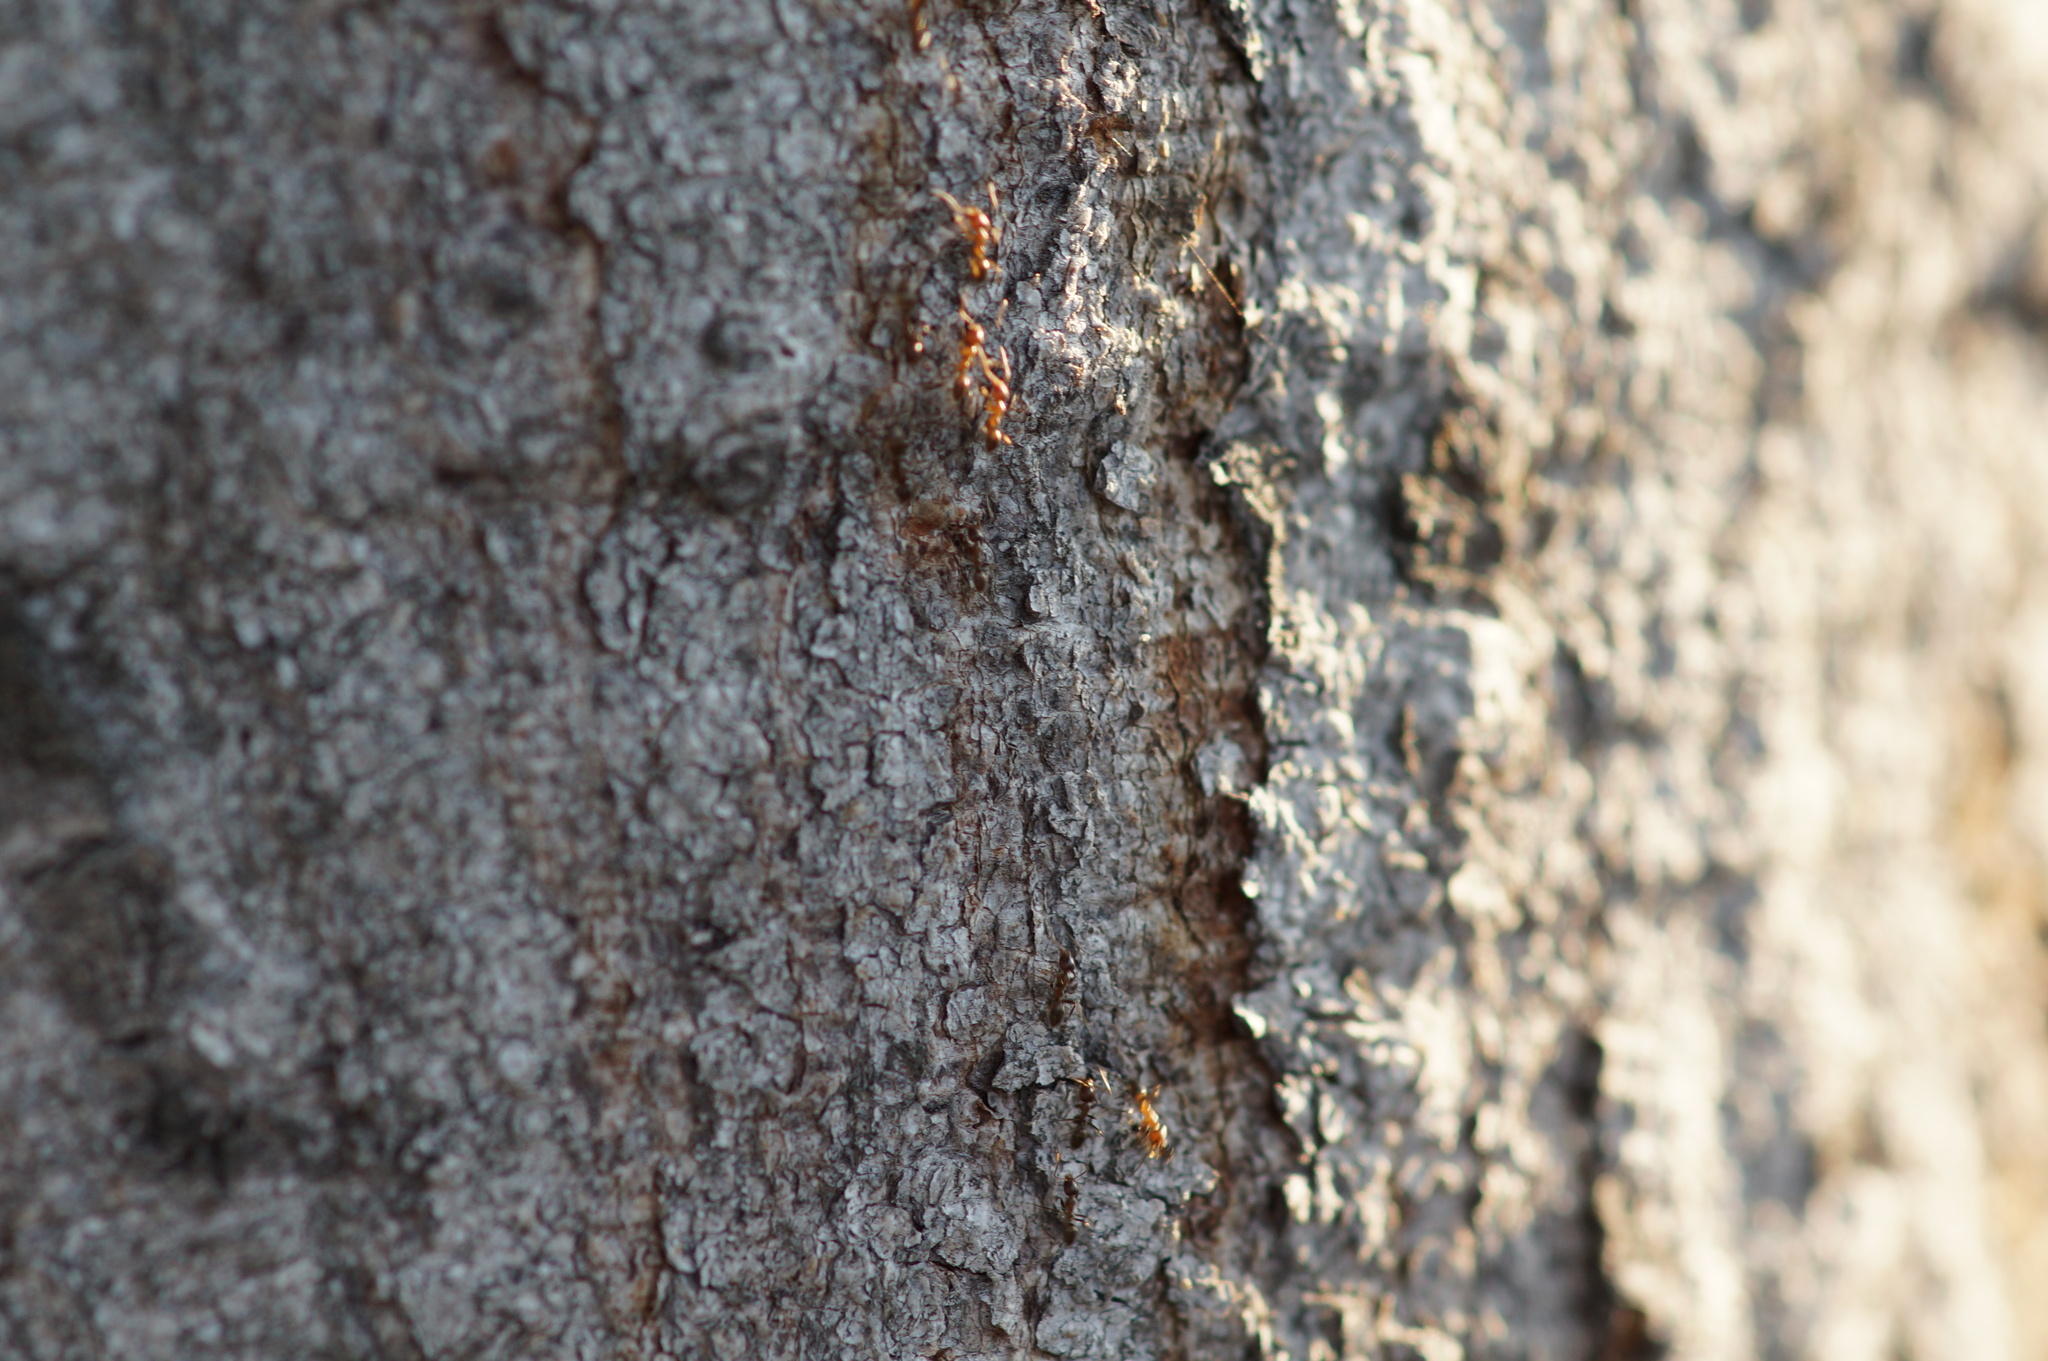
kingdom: Animalia
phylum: Arthropoda
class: Insecta
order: Hymenoptera
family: Formicidae
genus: Linepithema
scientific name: Linepithema humile
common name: Argentine ant
